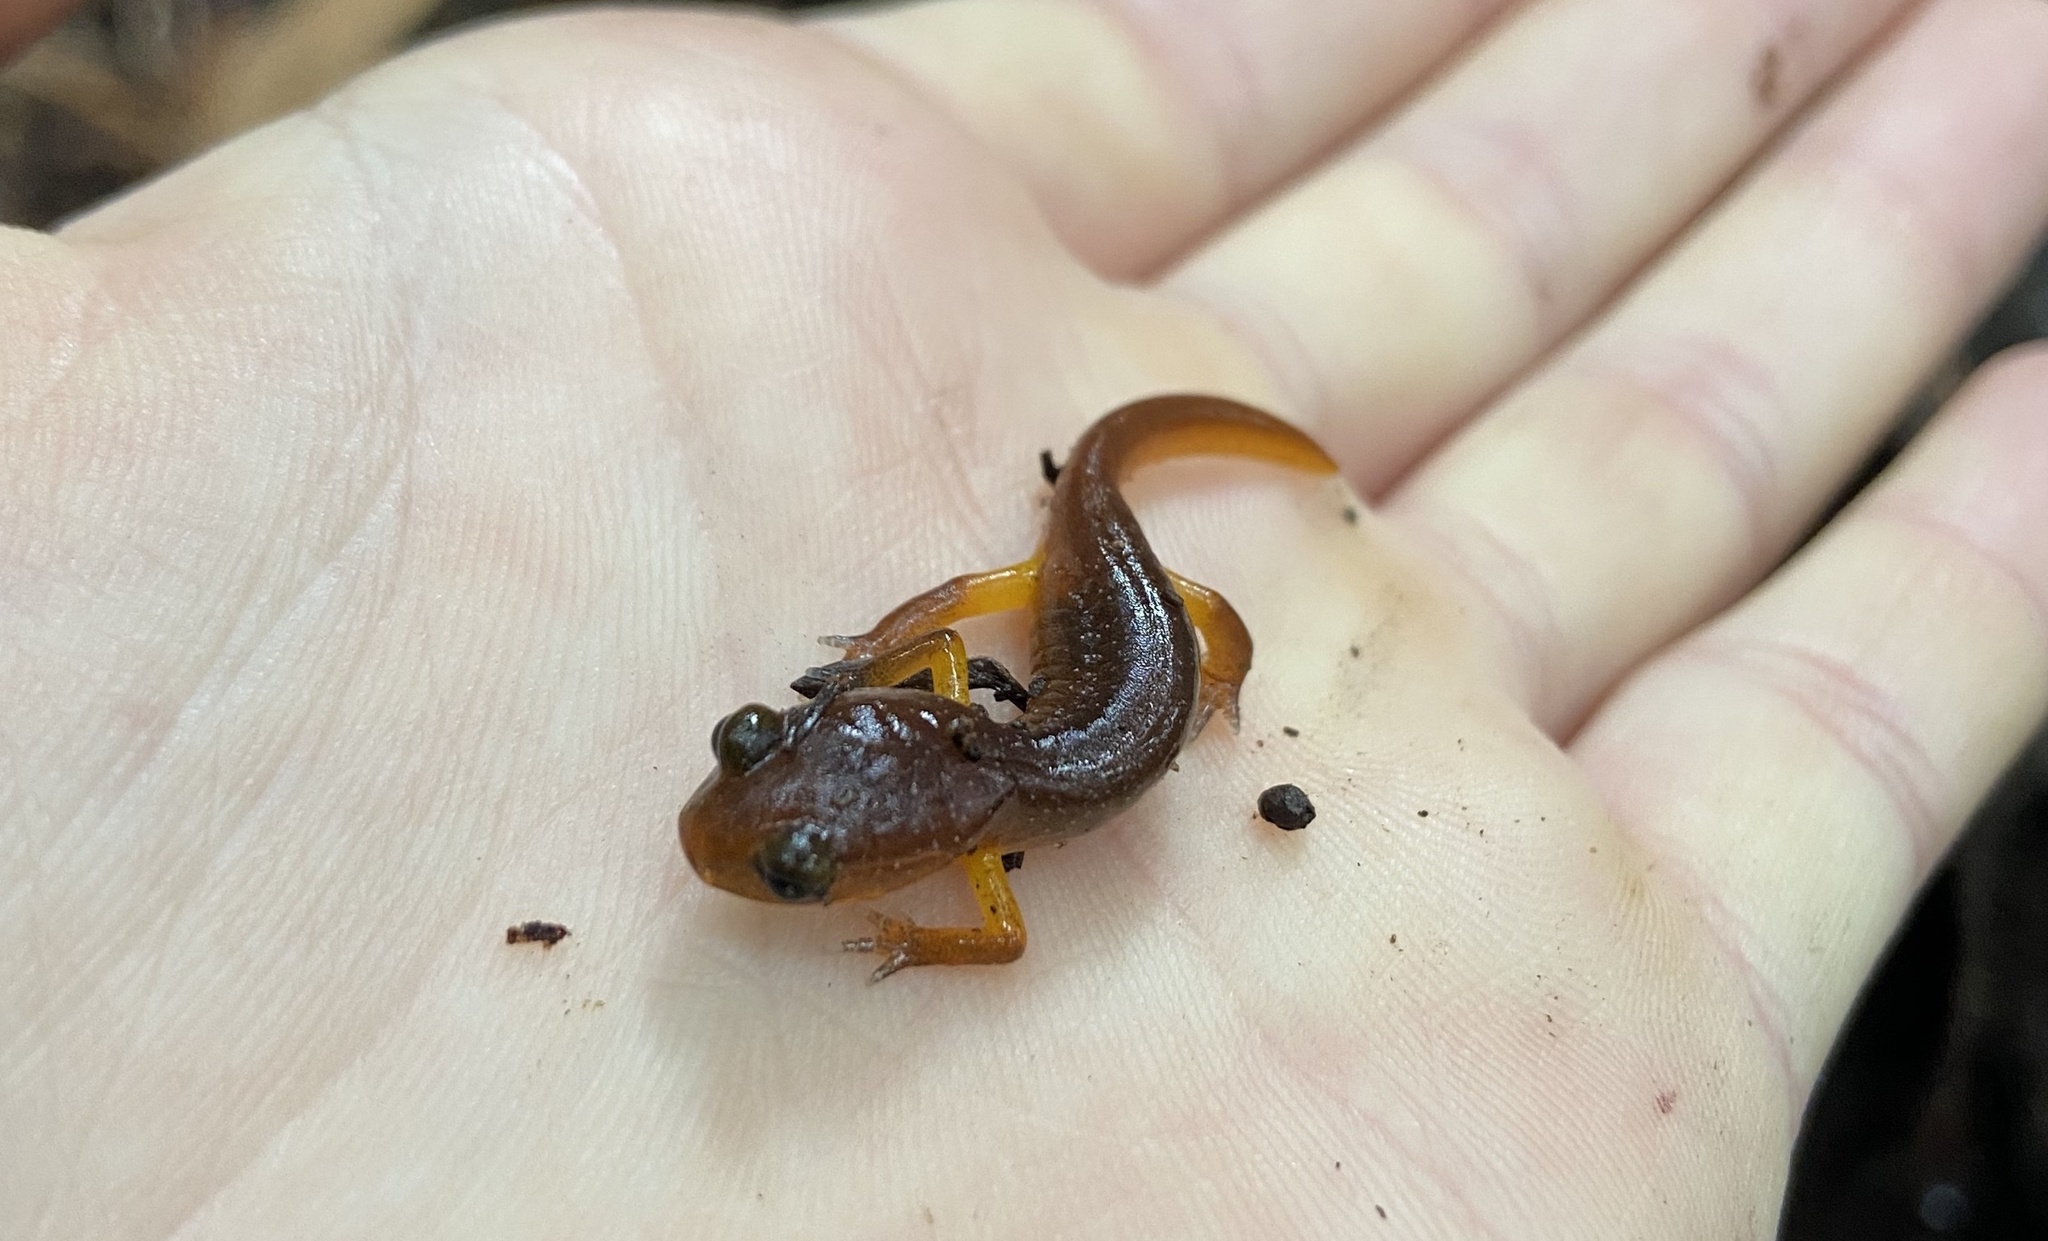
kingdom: Animalia
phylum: Chordata
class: Amphibia
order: Caudata
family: Plethodontidae
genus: Ensatina
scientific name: Ensatina eschscholtzii
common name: Ensatina
